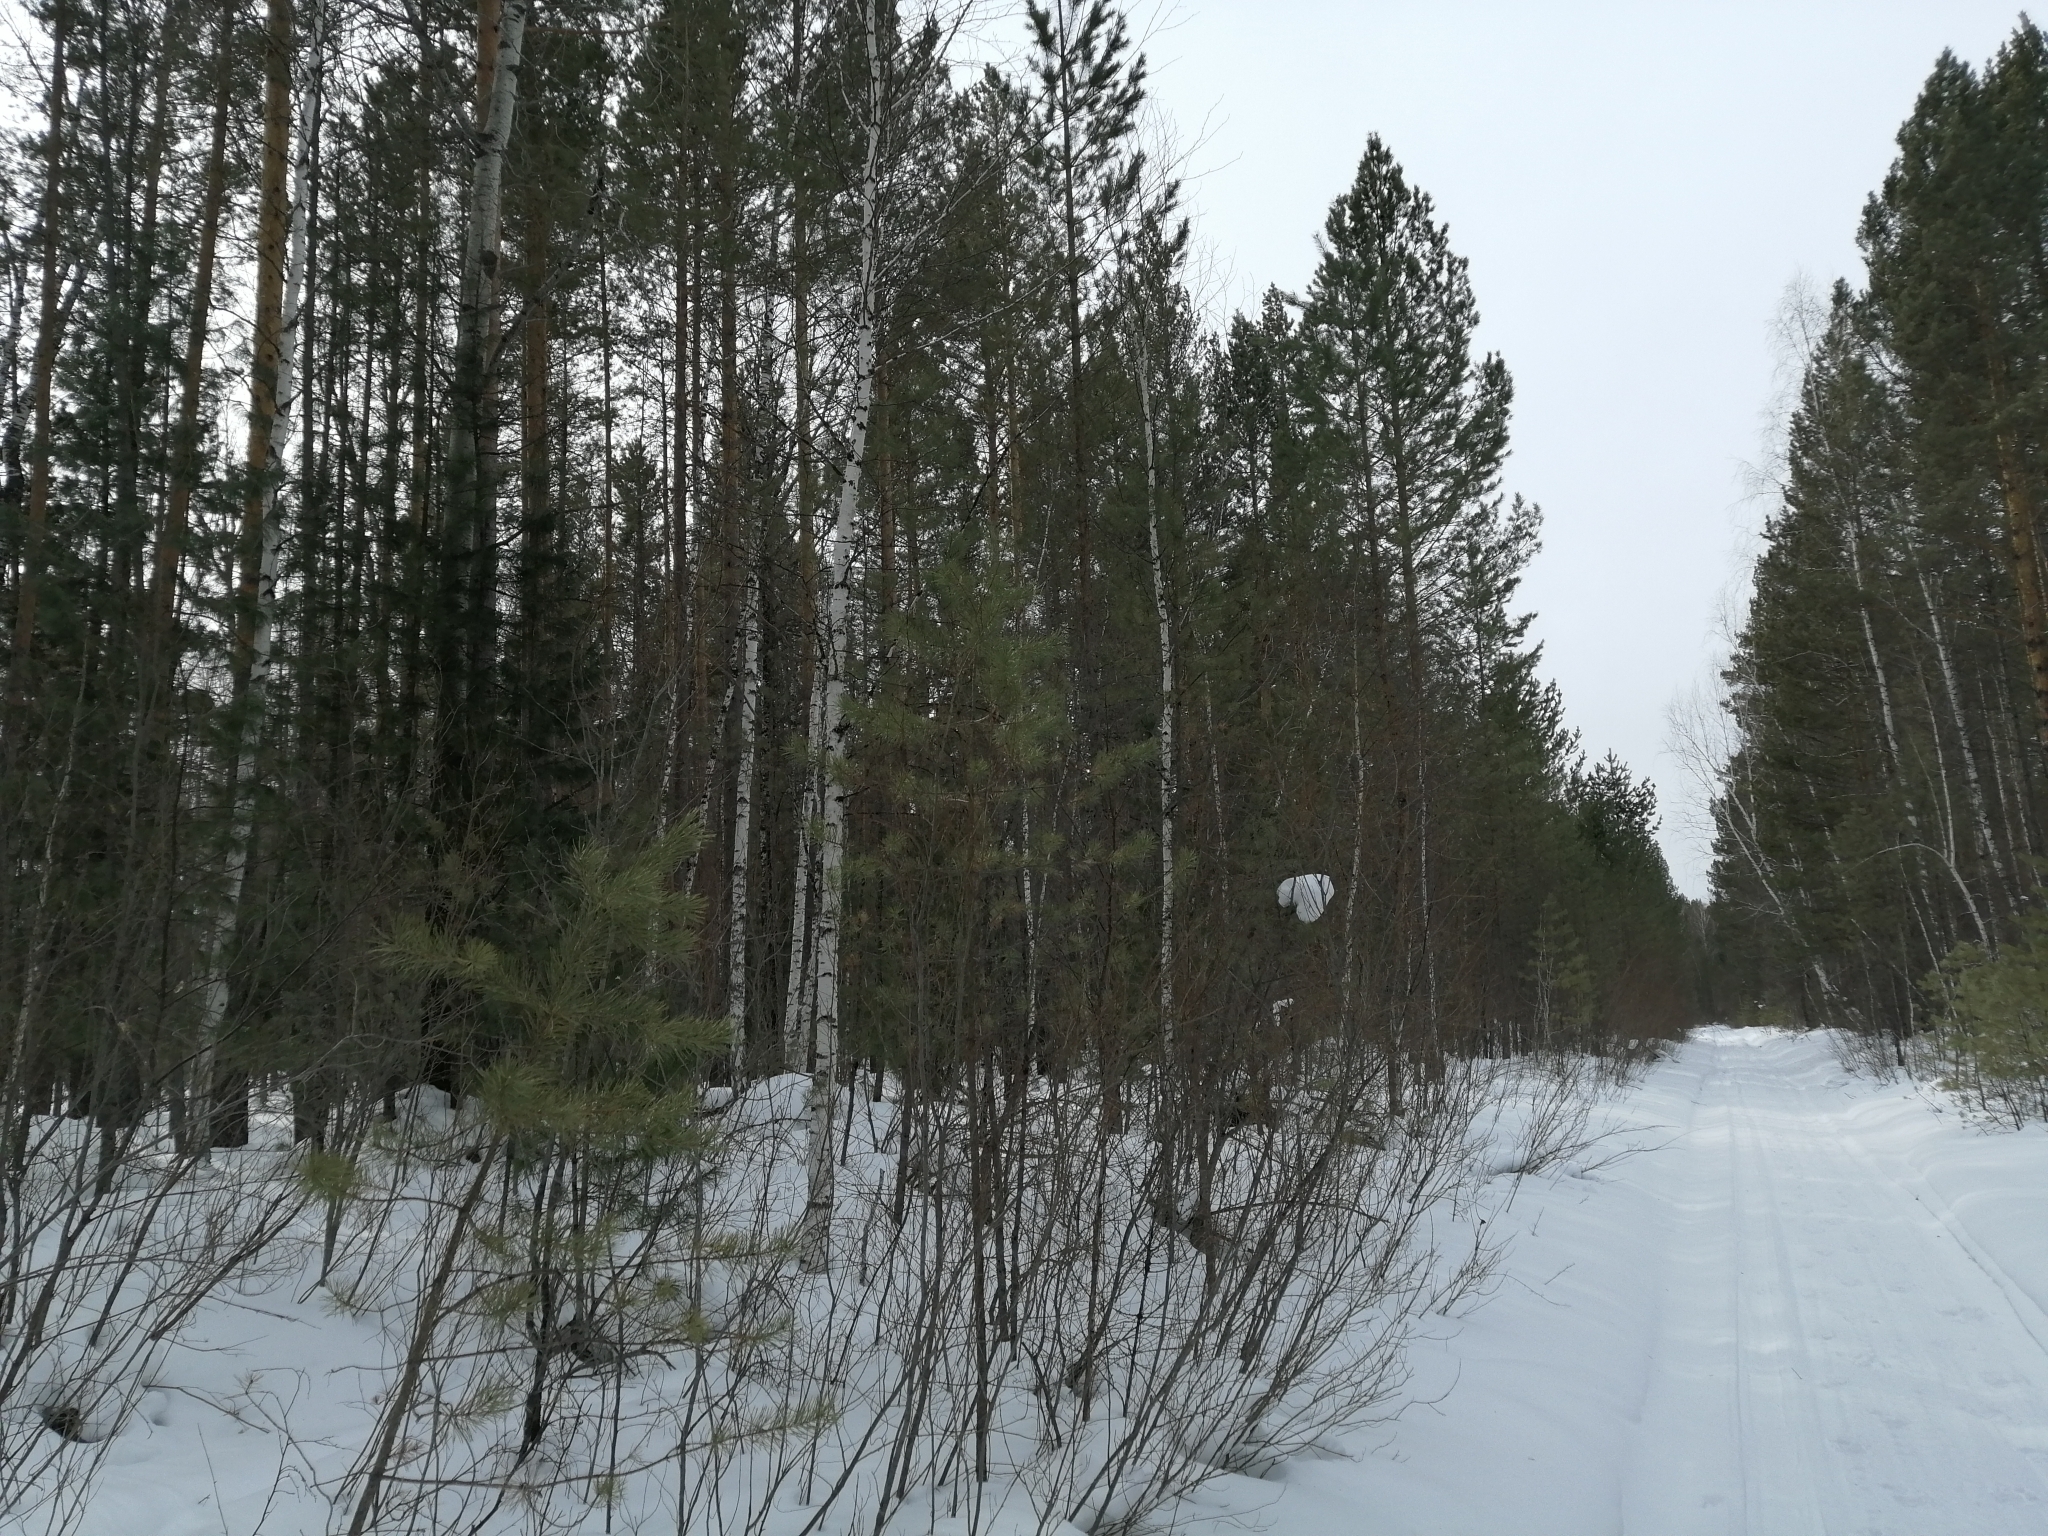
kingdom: Plantae
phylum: Tracheophyta
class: Pinopsida
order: Pinales
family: Pinaceae
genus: Pinus
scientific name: Pinus sylvestris
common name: Scots pine
